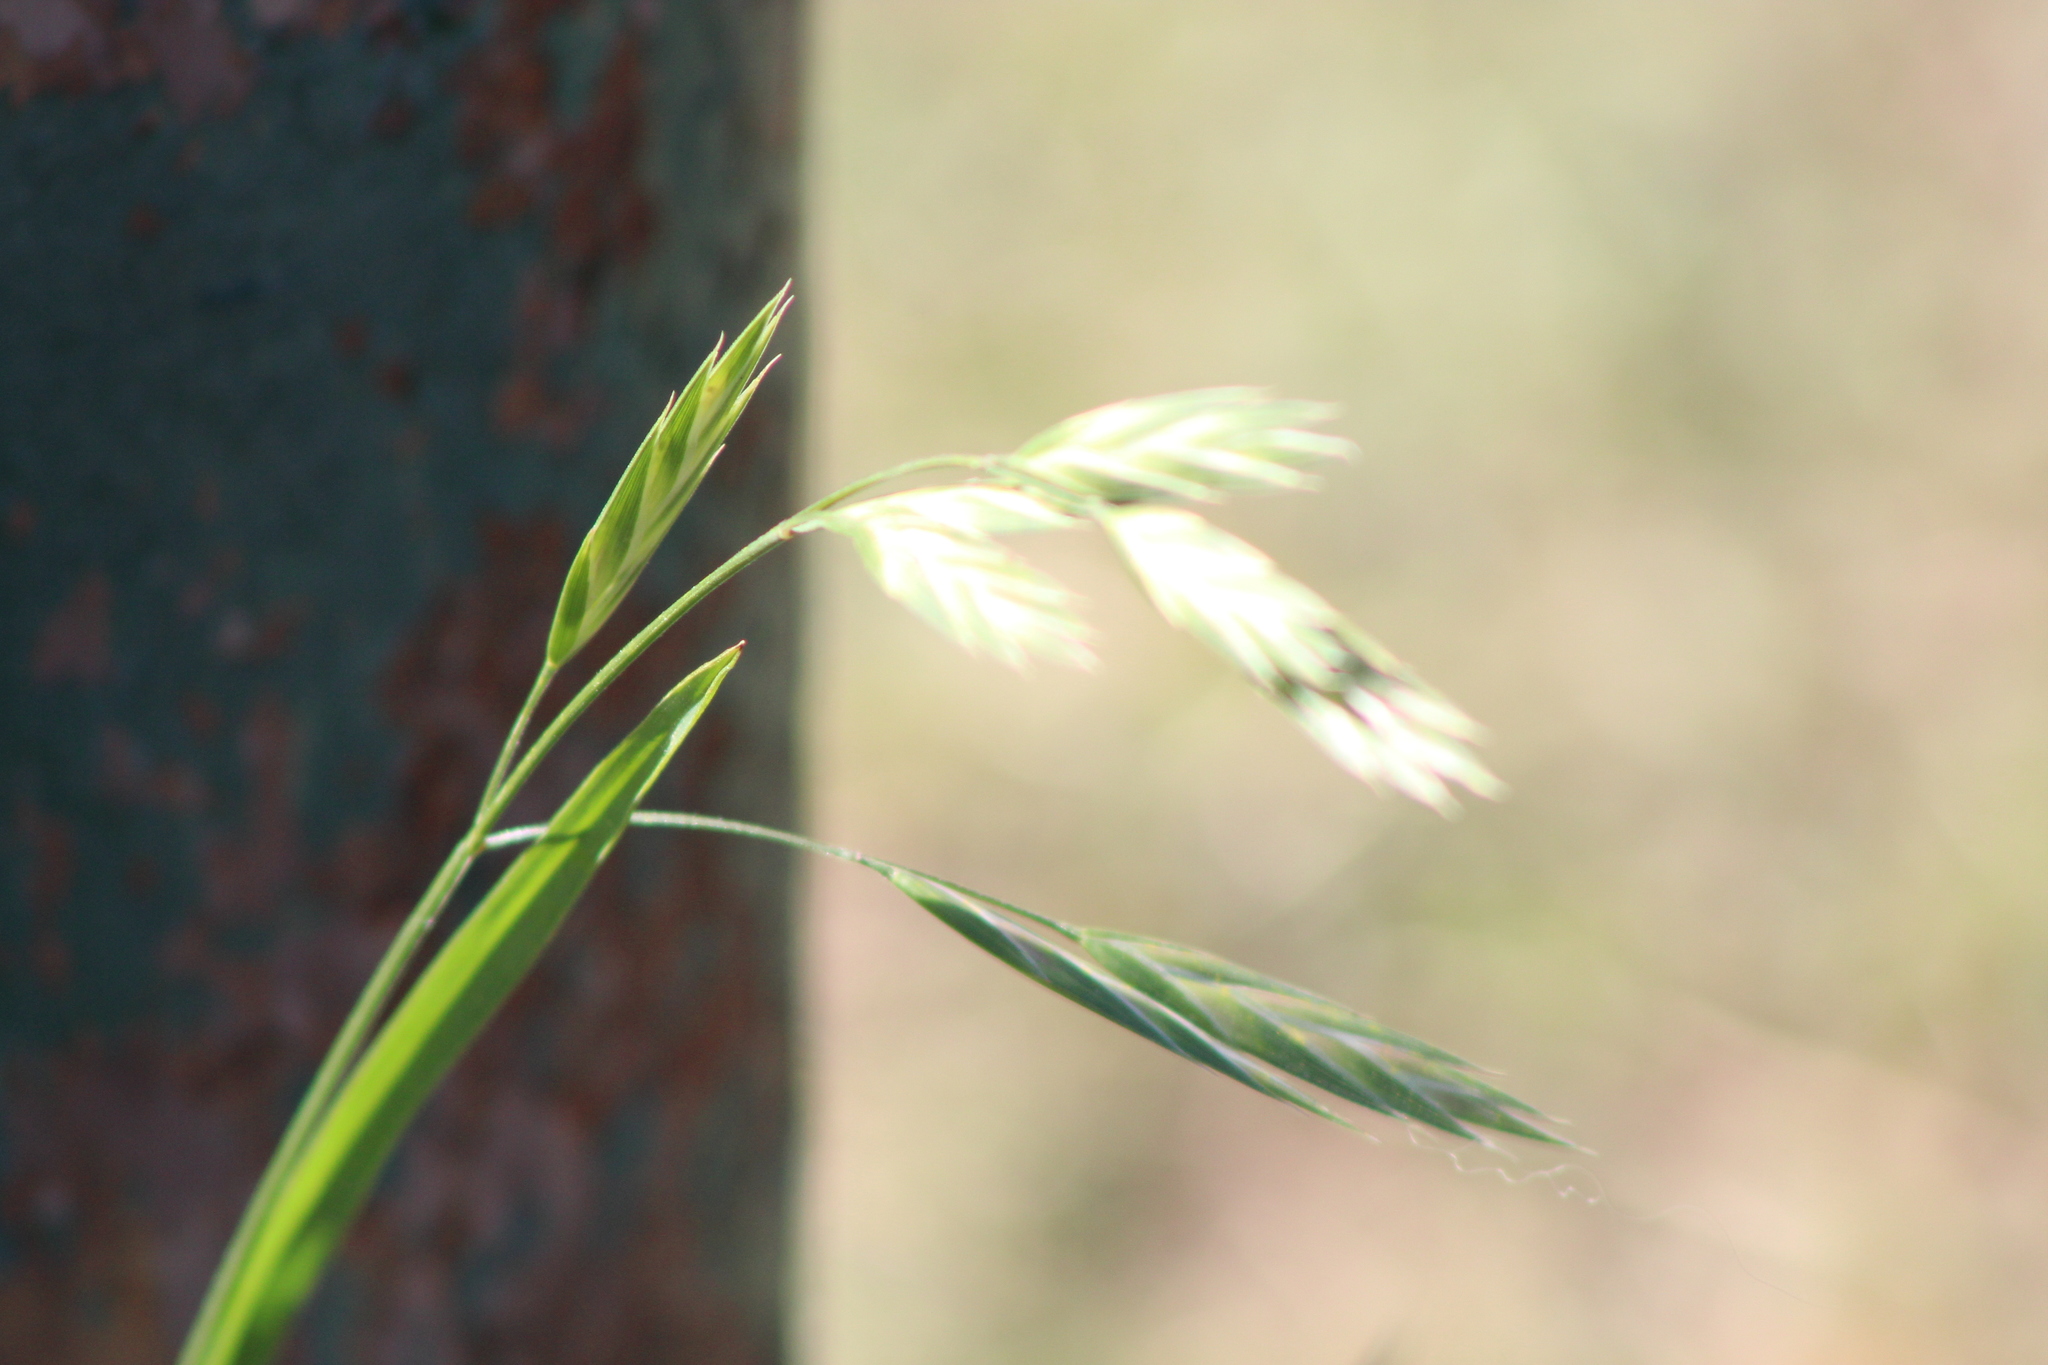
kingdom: Plantae
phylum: Tracheophyta
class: Liliopsida
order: Poales
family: Poaceae
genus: Bromus
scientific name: Bromus catharticus
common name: Rescuegrass
